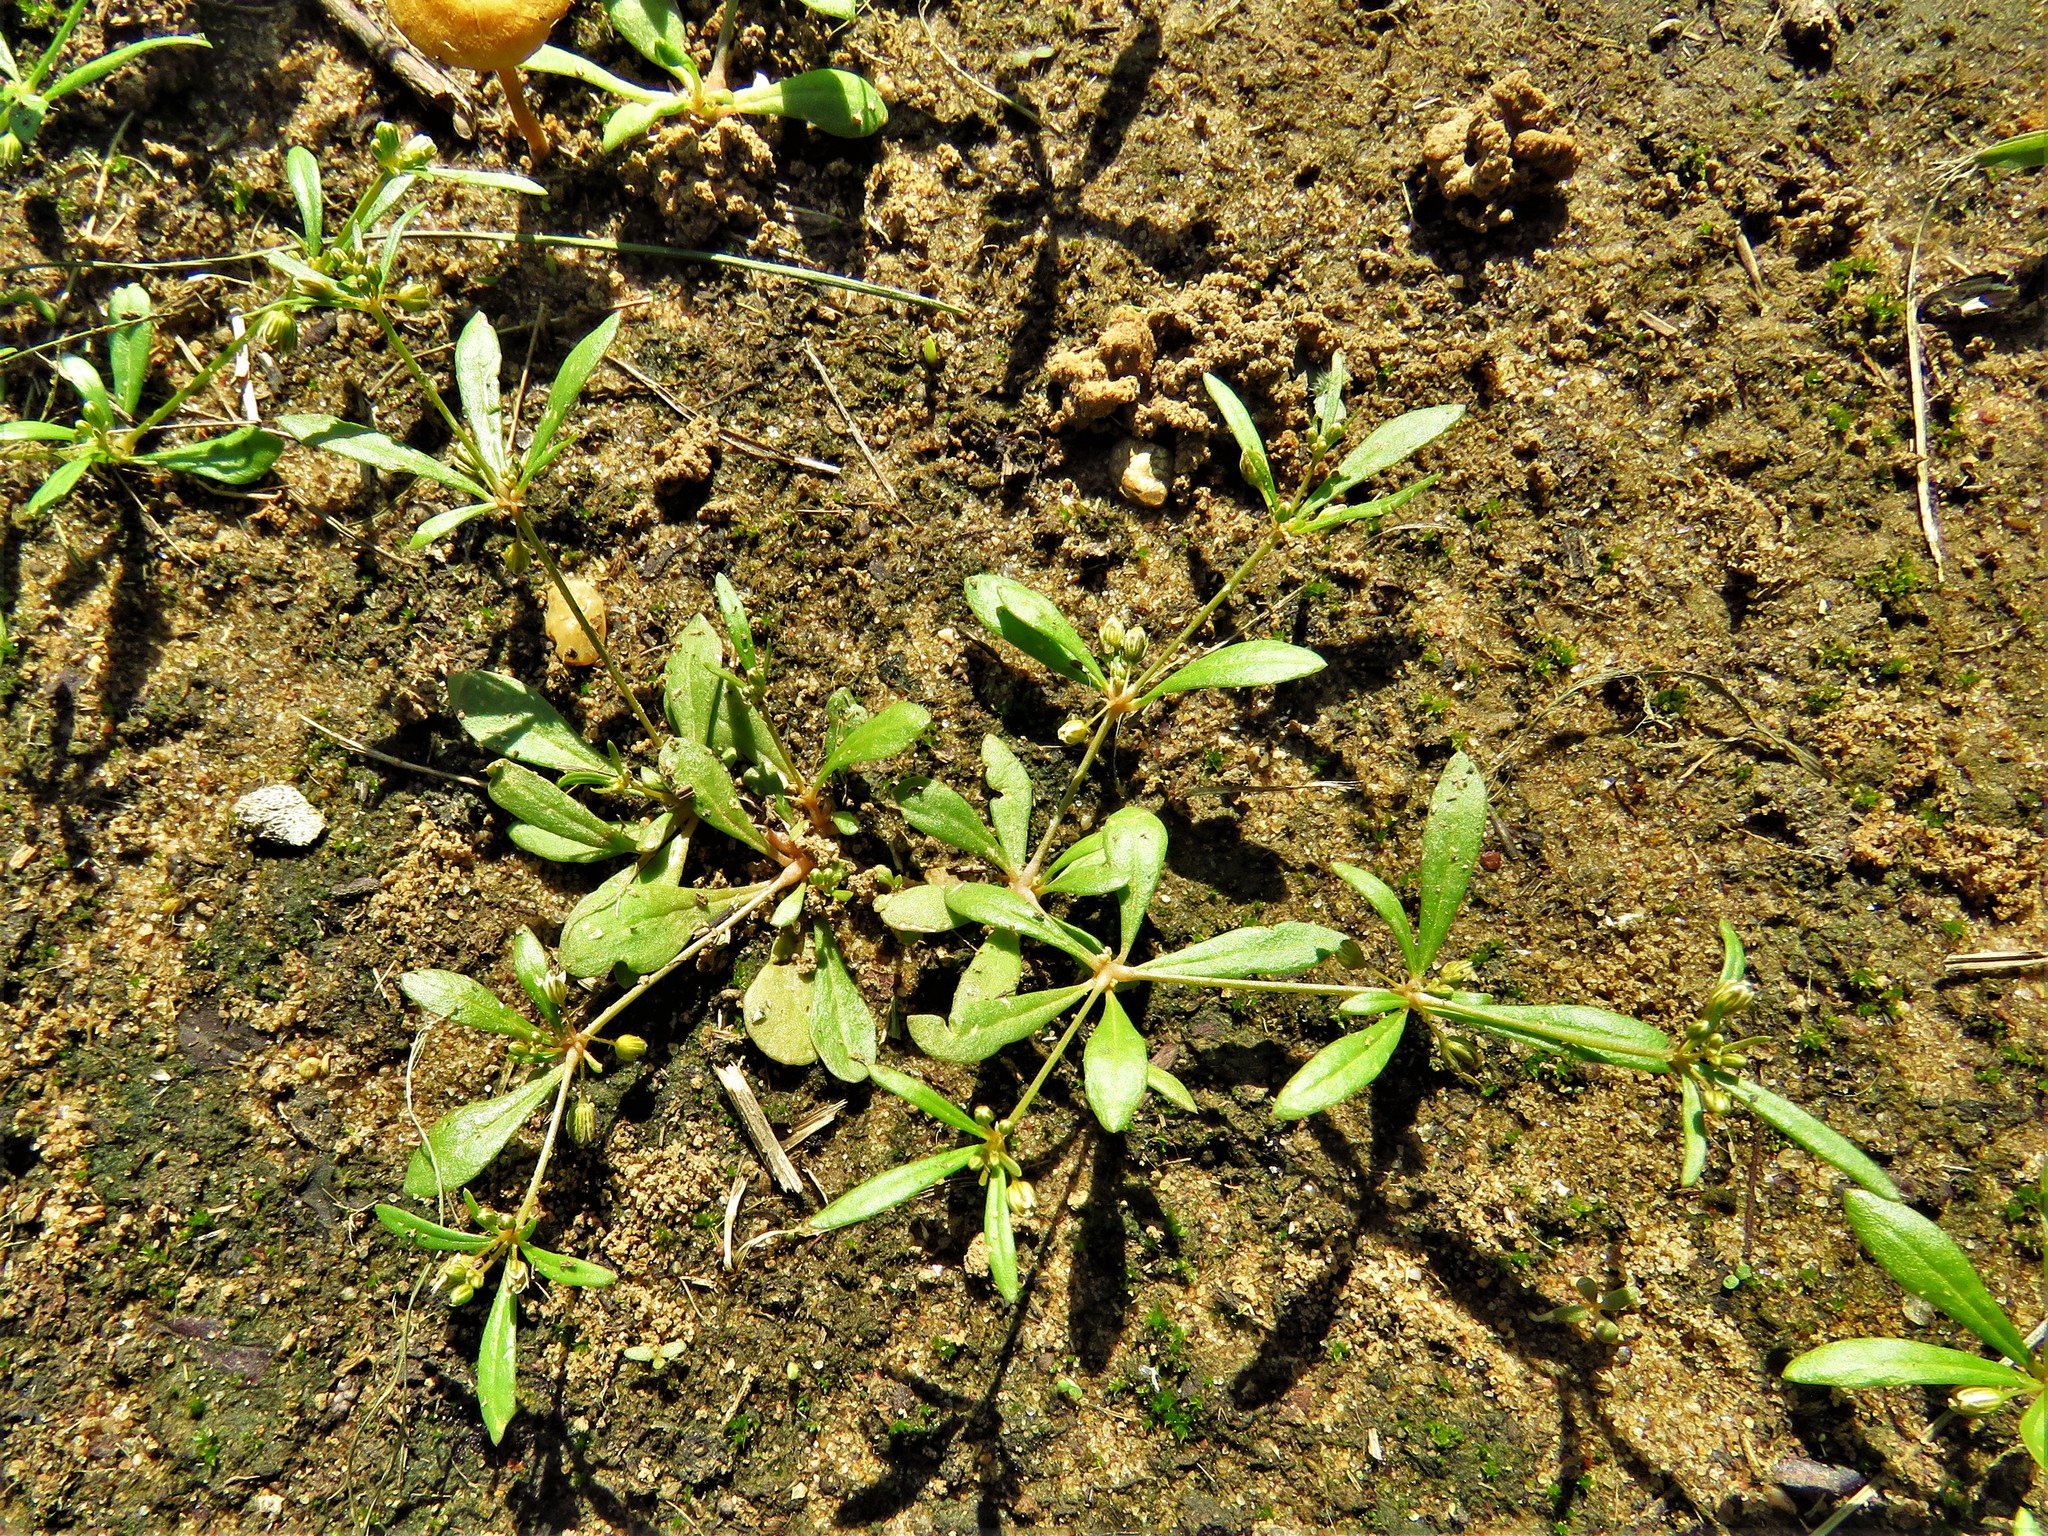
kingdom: Plantae
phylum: Tracheophyta
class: Magnoliopsida
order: Caryophyllales
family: Molluginaceae
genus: Mollugo
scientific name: Mollugo verticillata
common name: Green carpetweed
